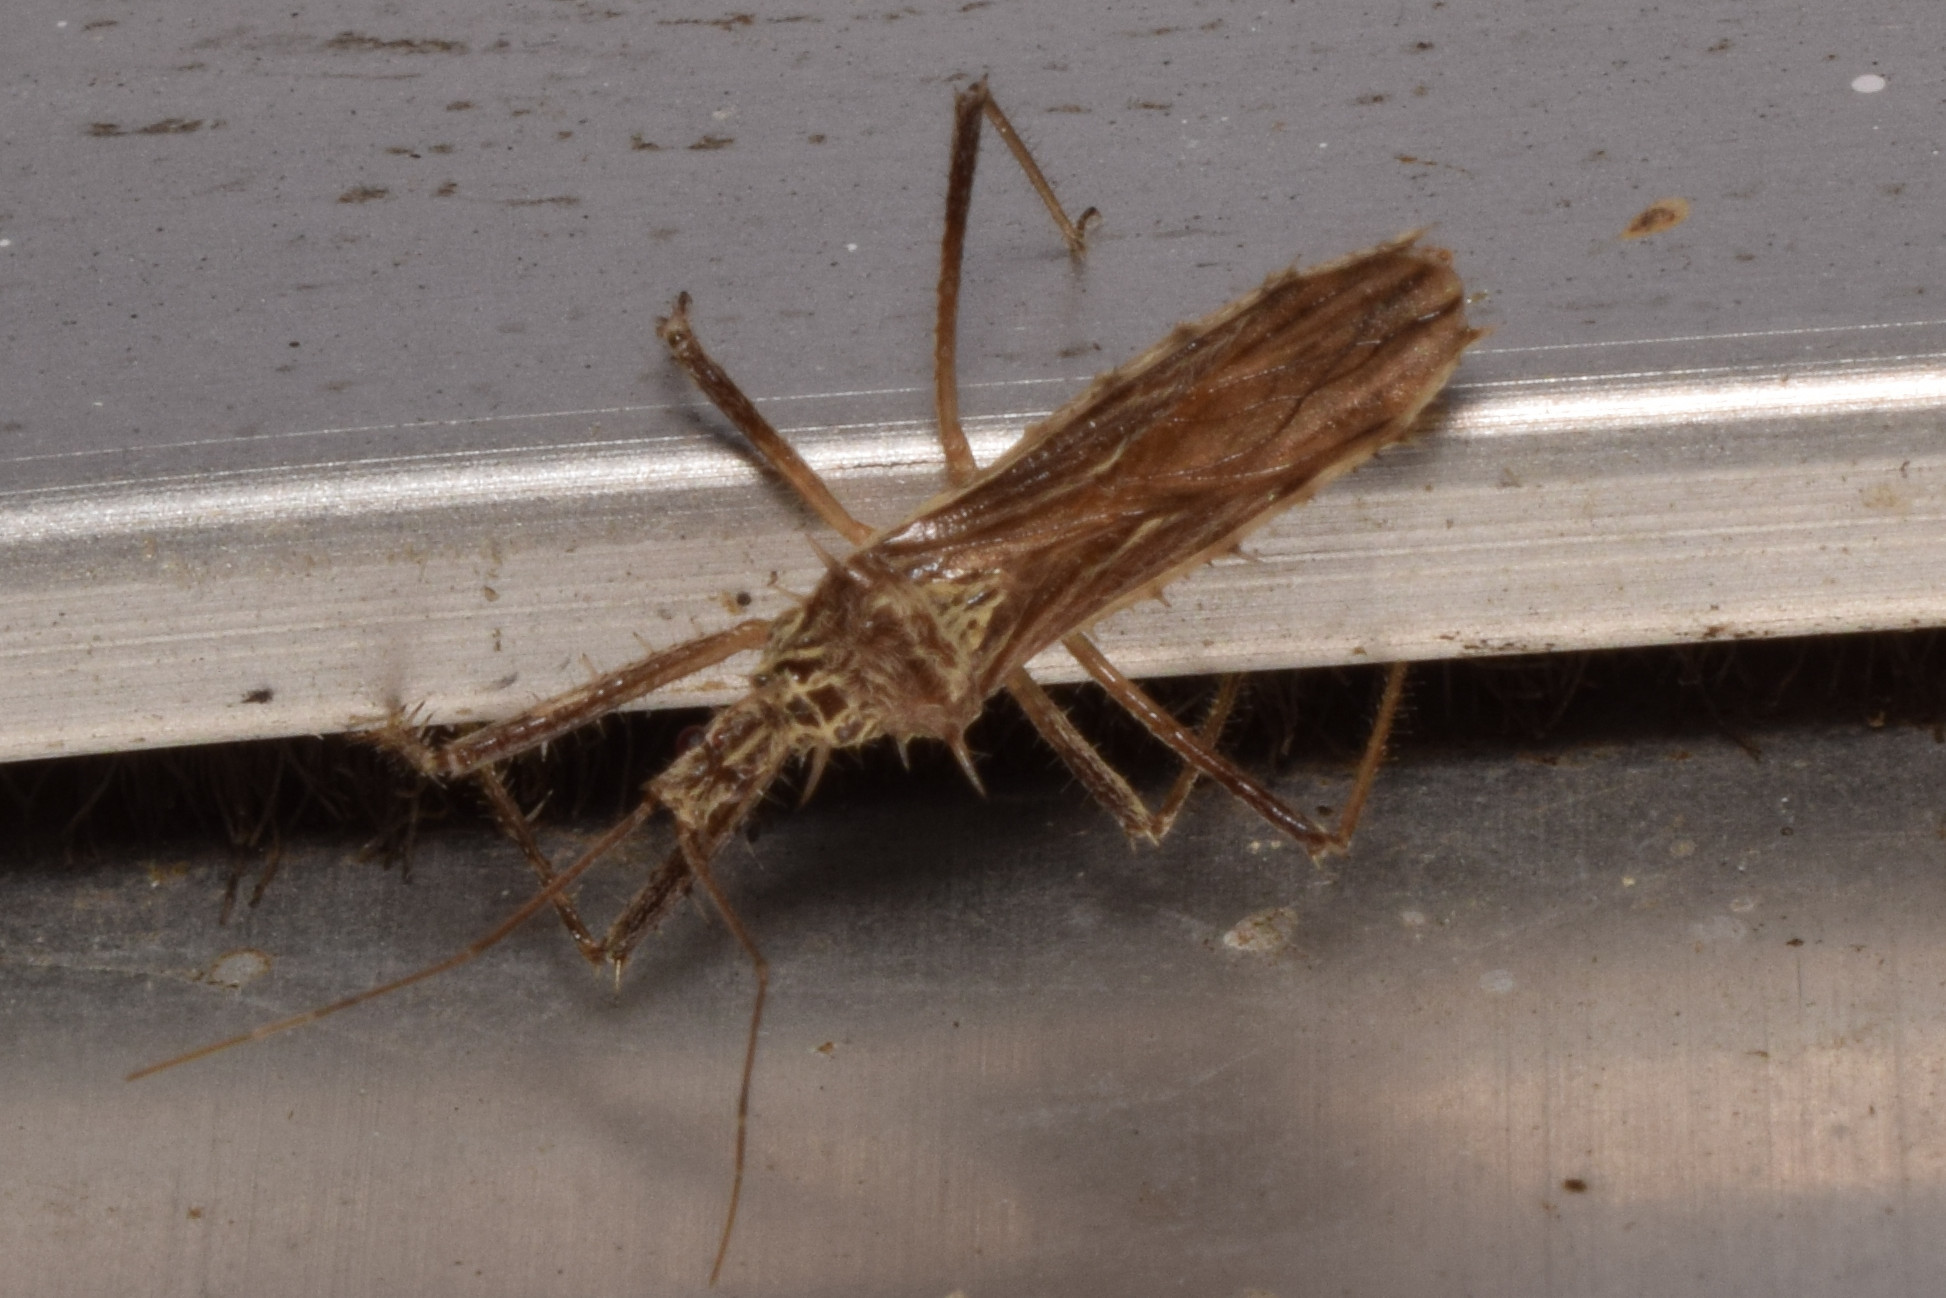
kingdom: Animalia
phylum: Arthropoda
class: Insecta
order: Hemiptera
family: Reduviidae
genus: Polididus
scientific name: Polididus armatissimus
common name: Assassin bug
